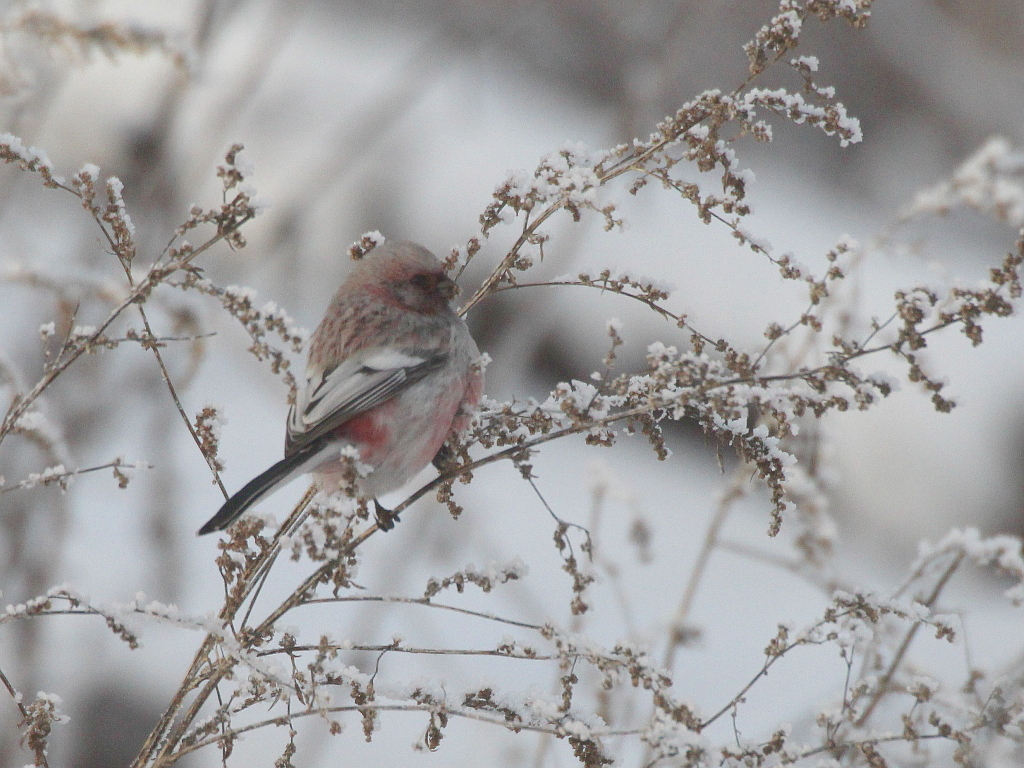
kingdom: Animalia
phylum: Chordata
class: Aves
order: Passeriformes
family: Fringillidae
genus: Carpodacus
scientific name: Carpodacus sibiricus
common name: Long-tailed rosefinch
